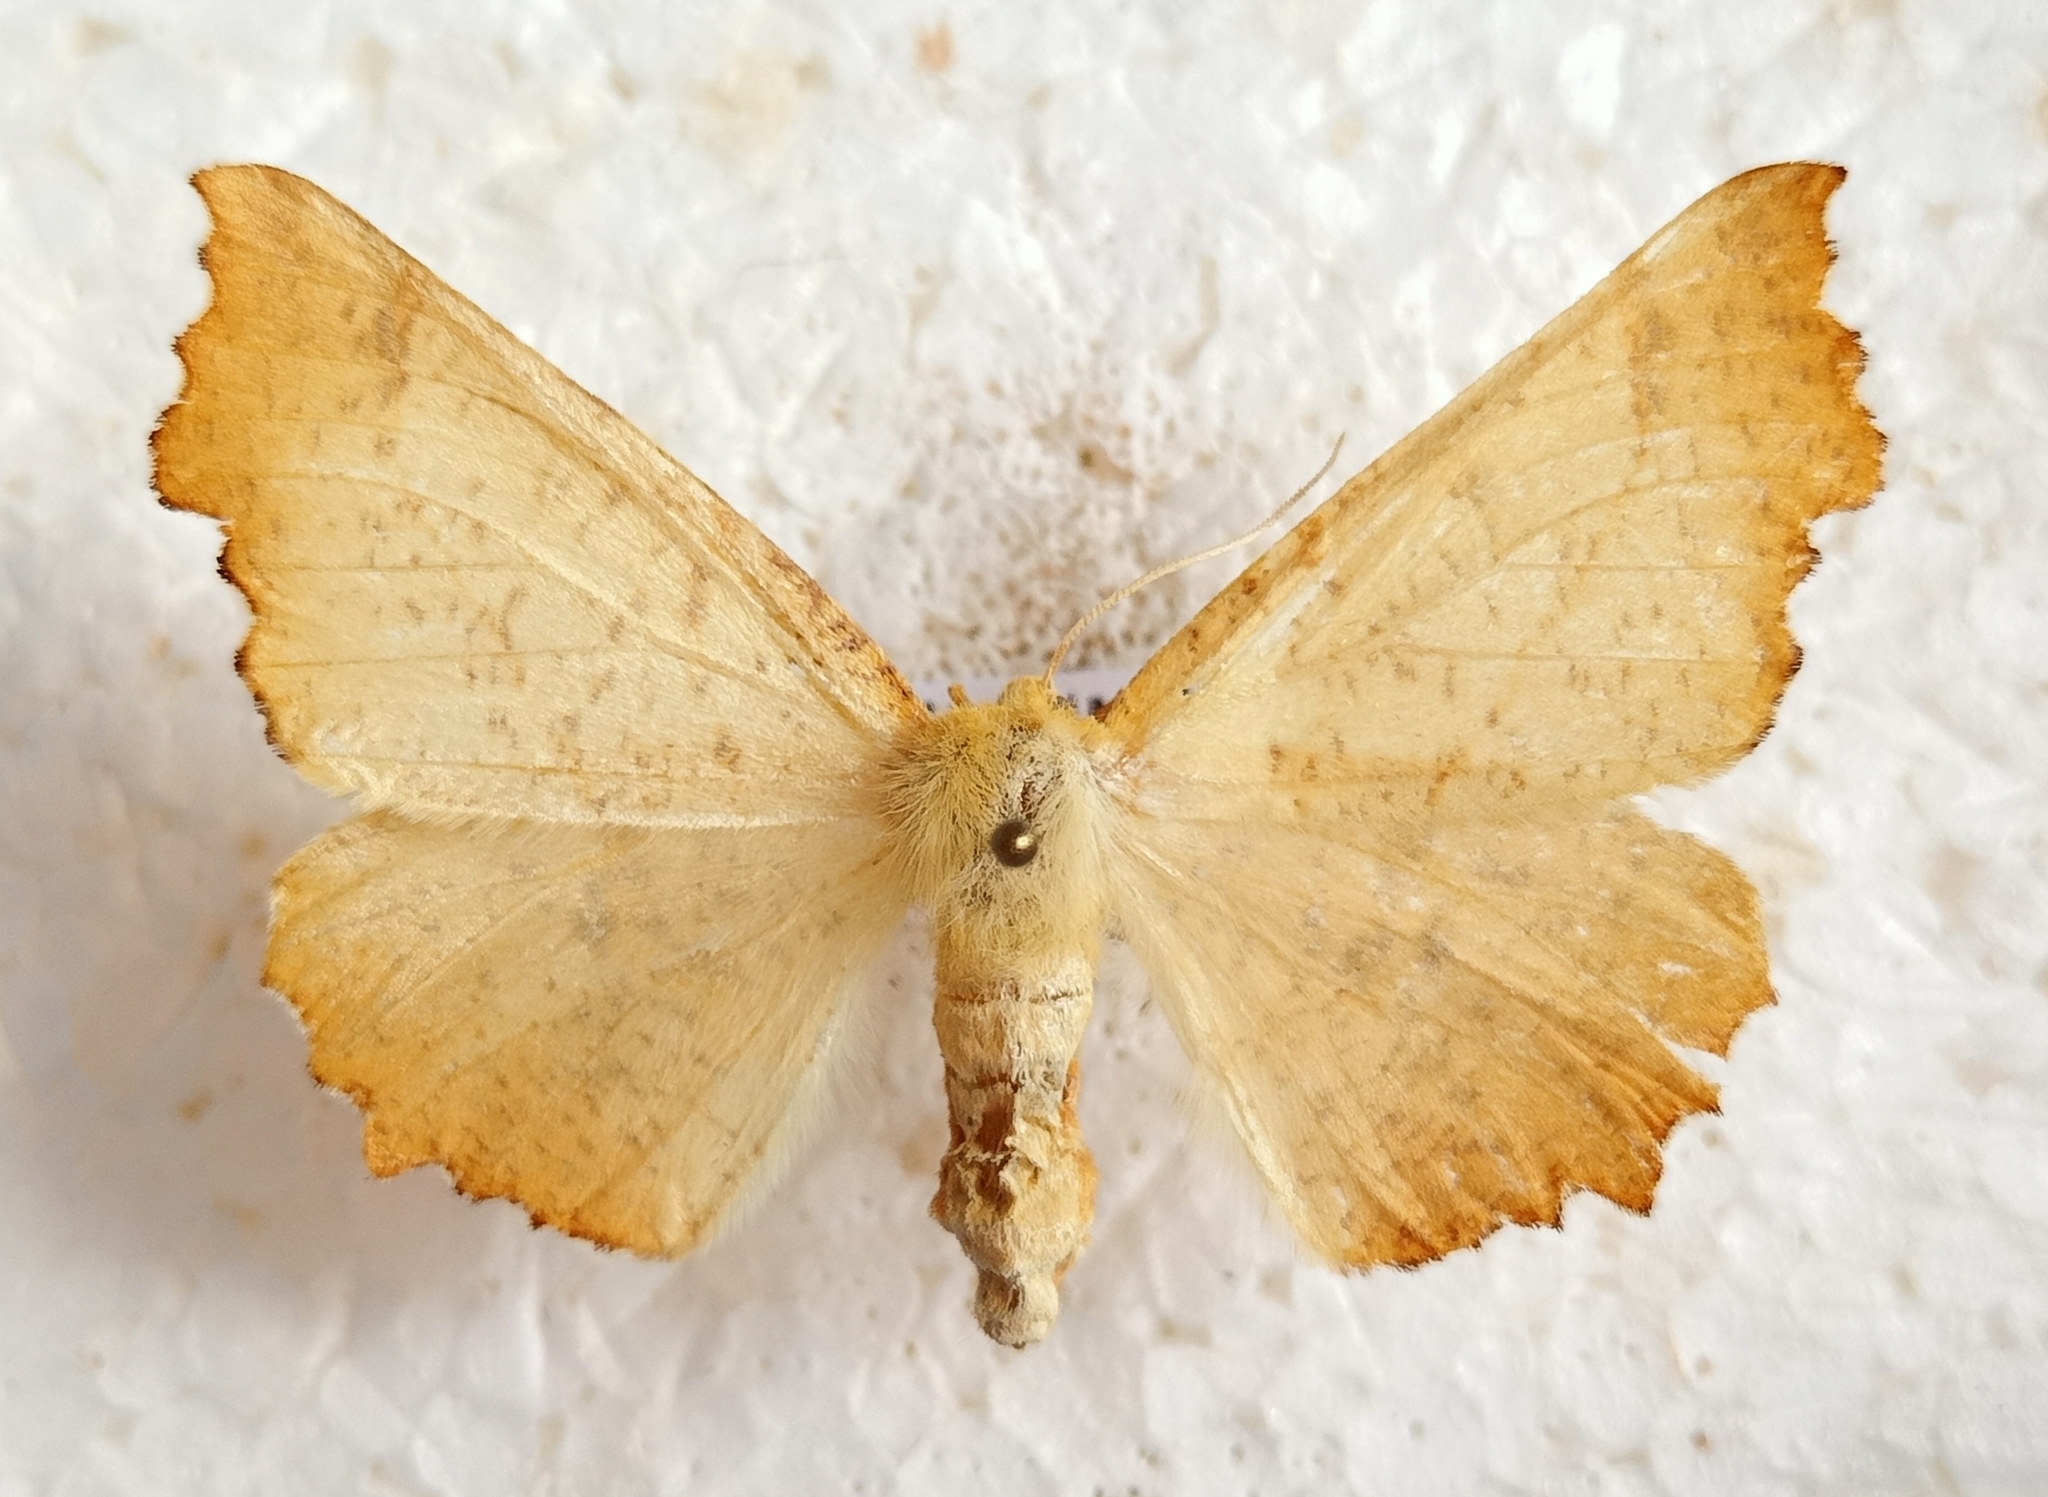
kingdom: Animalia
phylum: Arthropoda
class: Insecta
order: Lepidoptera
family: Geometridae
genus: Ennomos
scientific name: Ennomos autumnaria
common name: Large thorn
